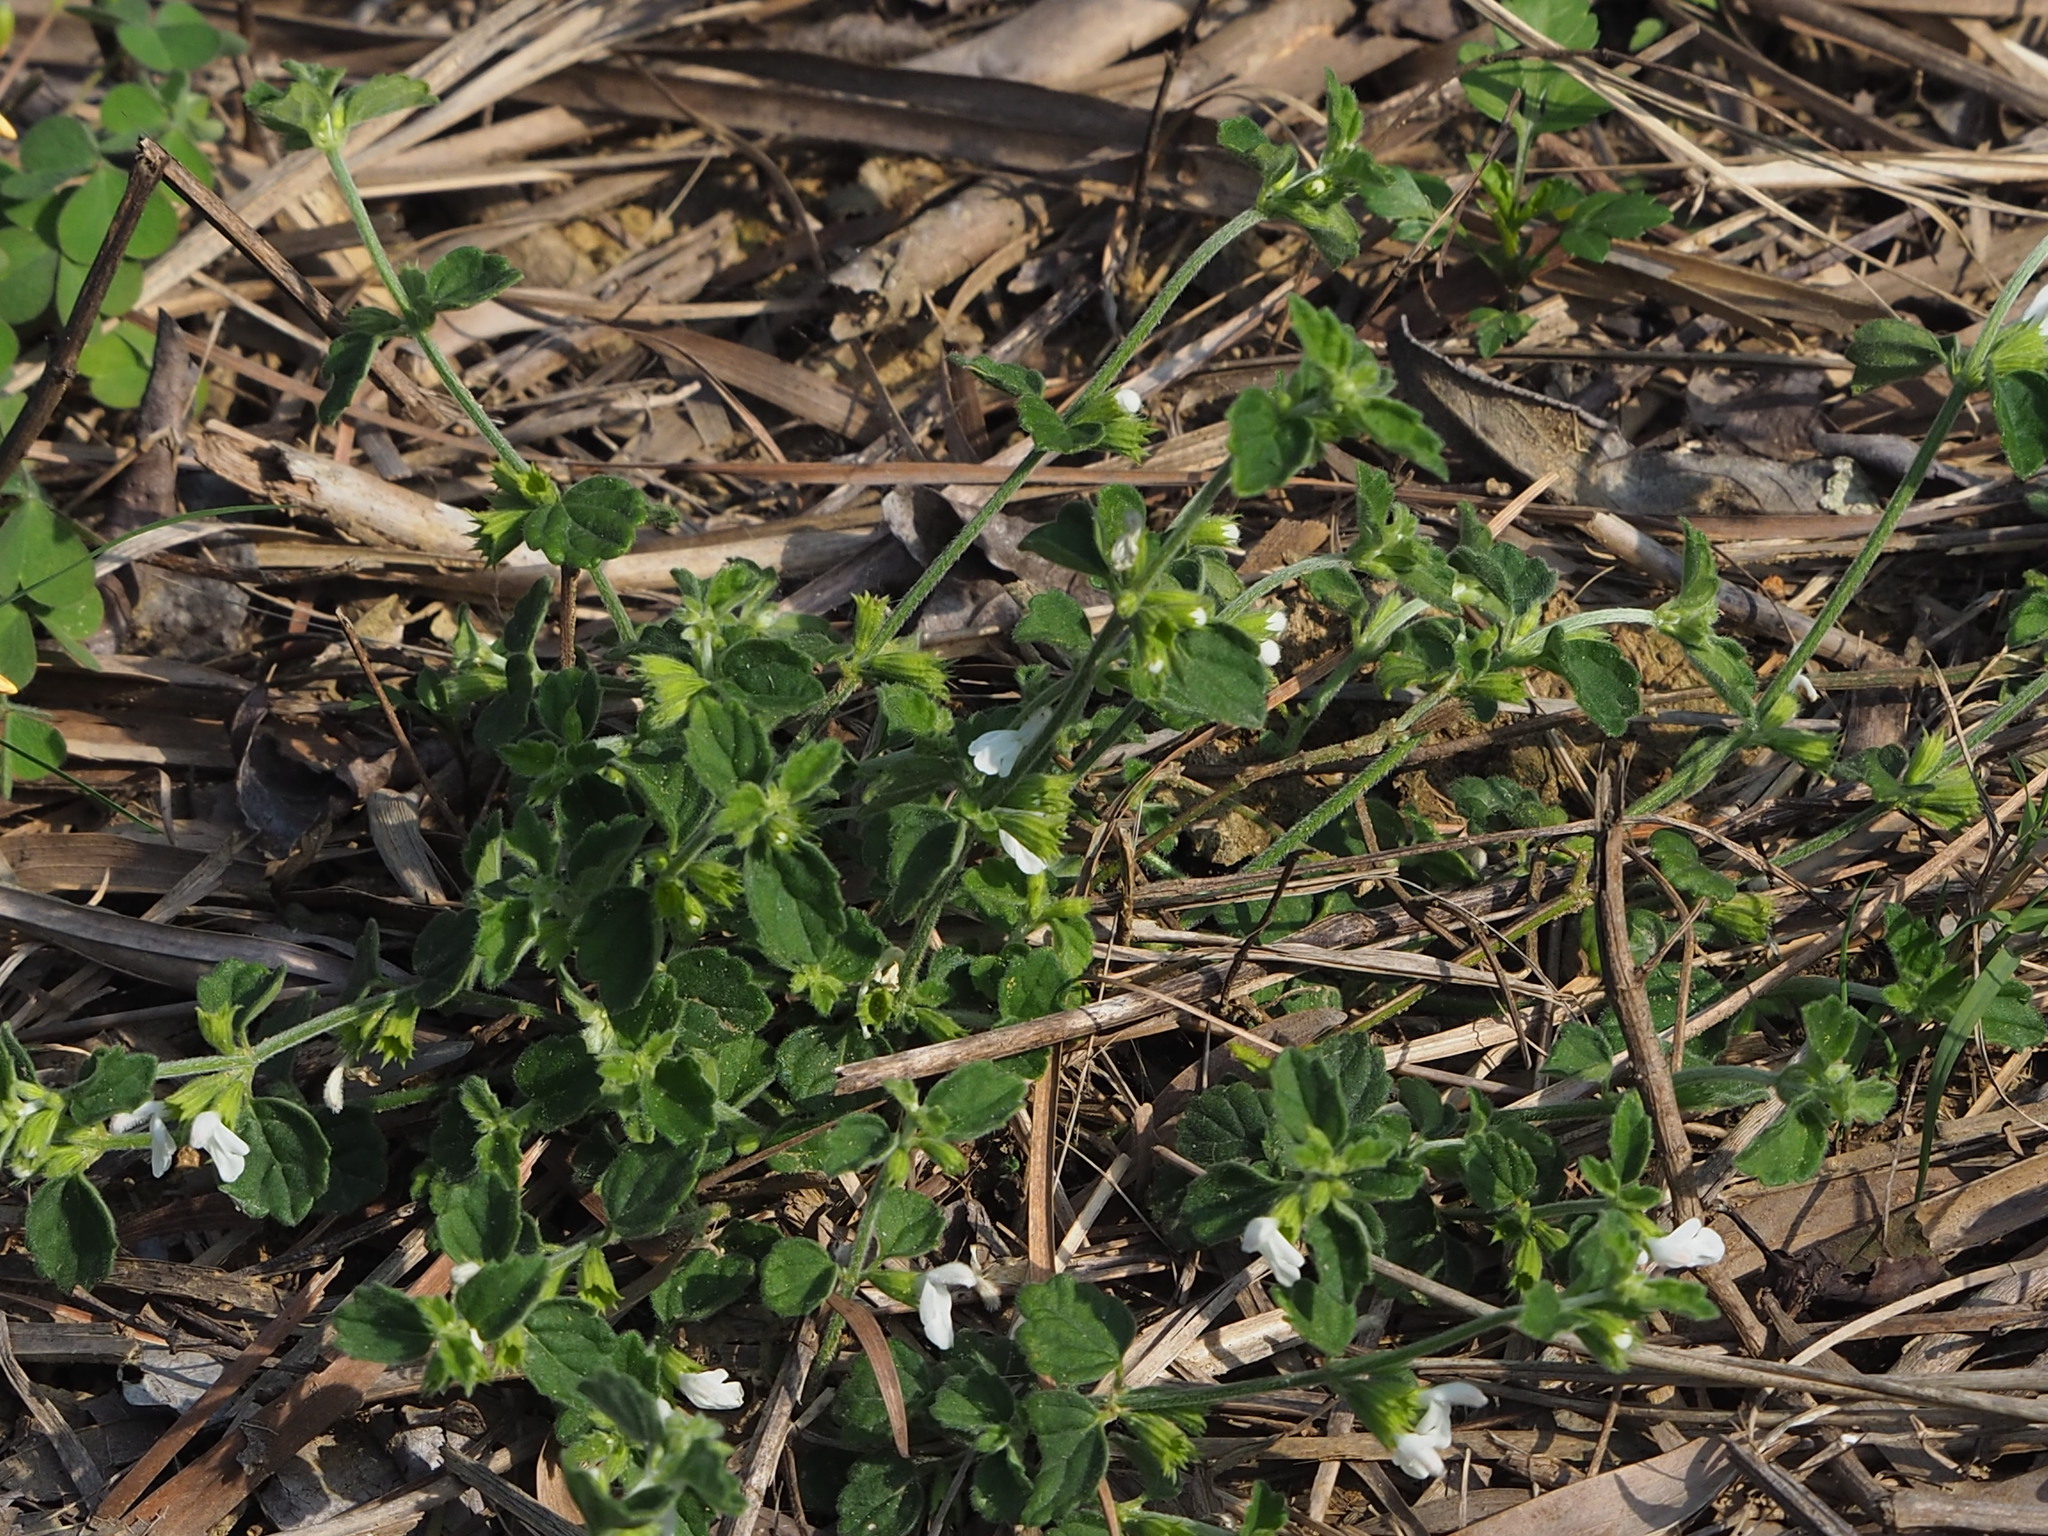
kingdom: Plantae
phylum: Tracheophyta
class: Magnoliopsida
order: Lamiales
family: Lamiaceae
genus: Leucas
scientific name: Leucas chinensis
